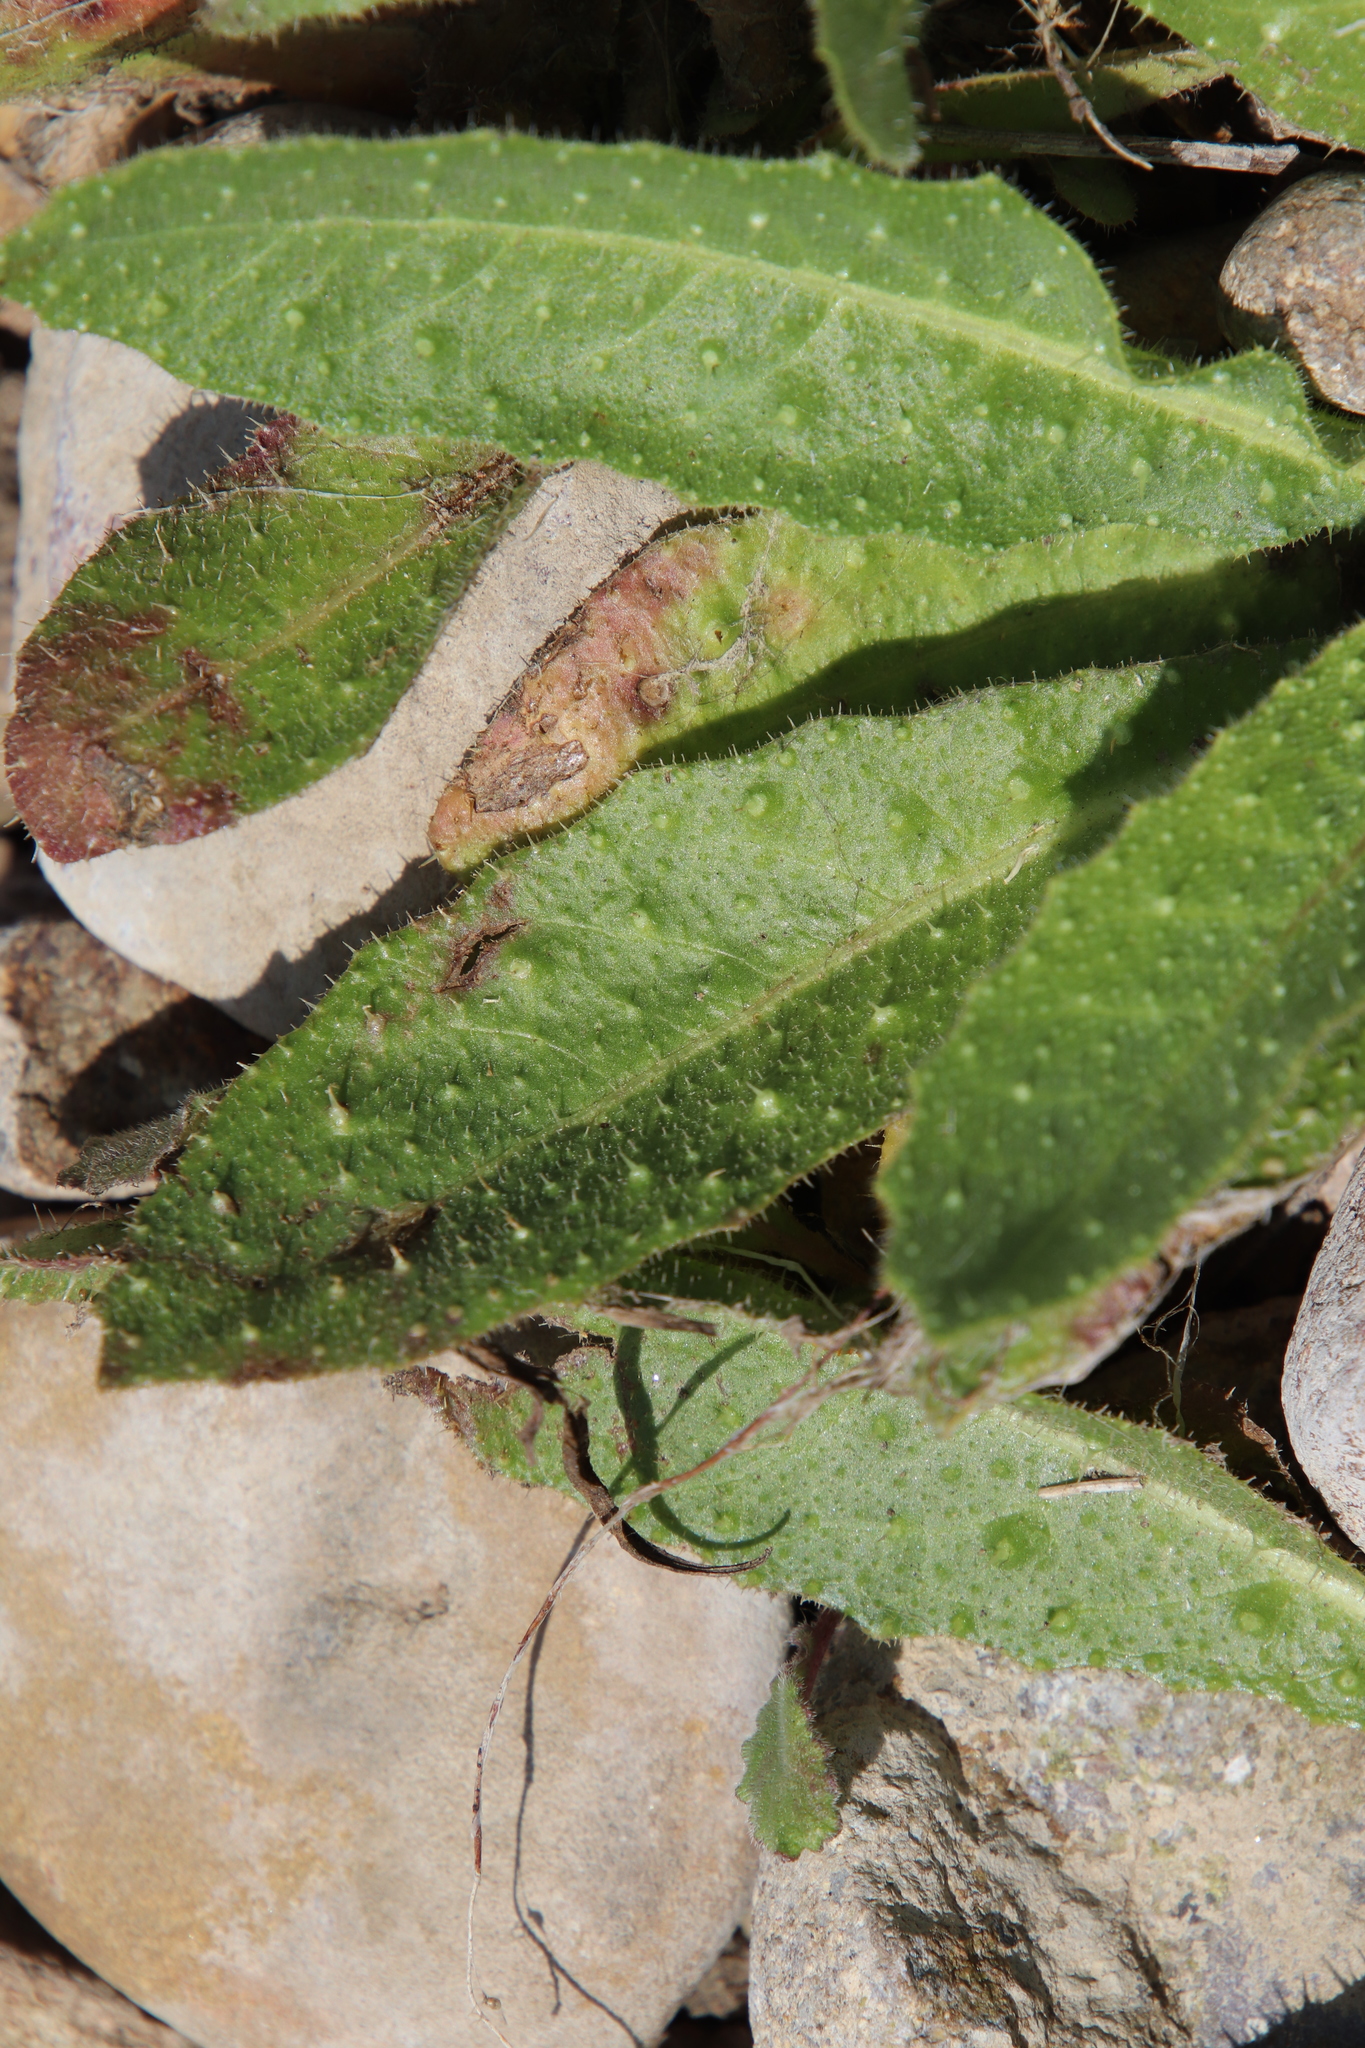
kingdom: Plantae
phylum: Tracheophyta
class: Magnoliopsida
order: Asterales
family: Asteraceae
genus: Helminthotheca
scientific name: Helminthotheca echioides
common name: Ox-tongue
